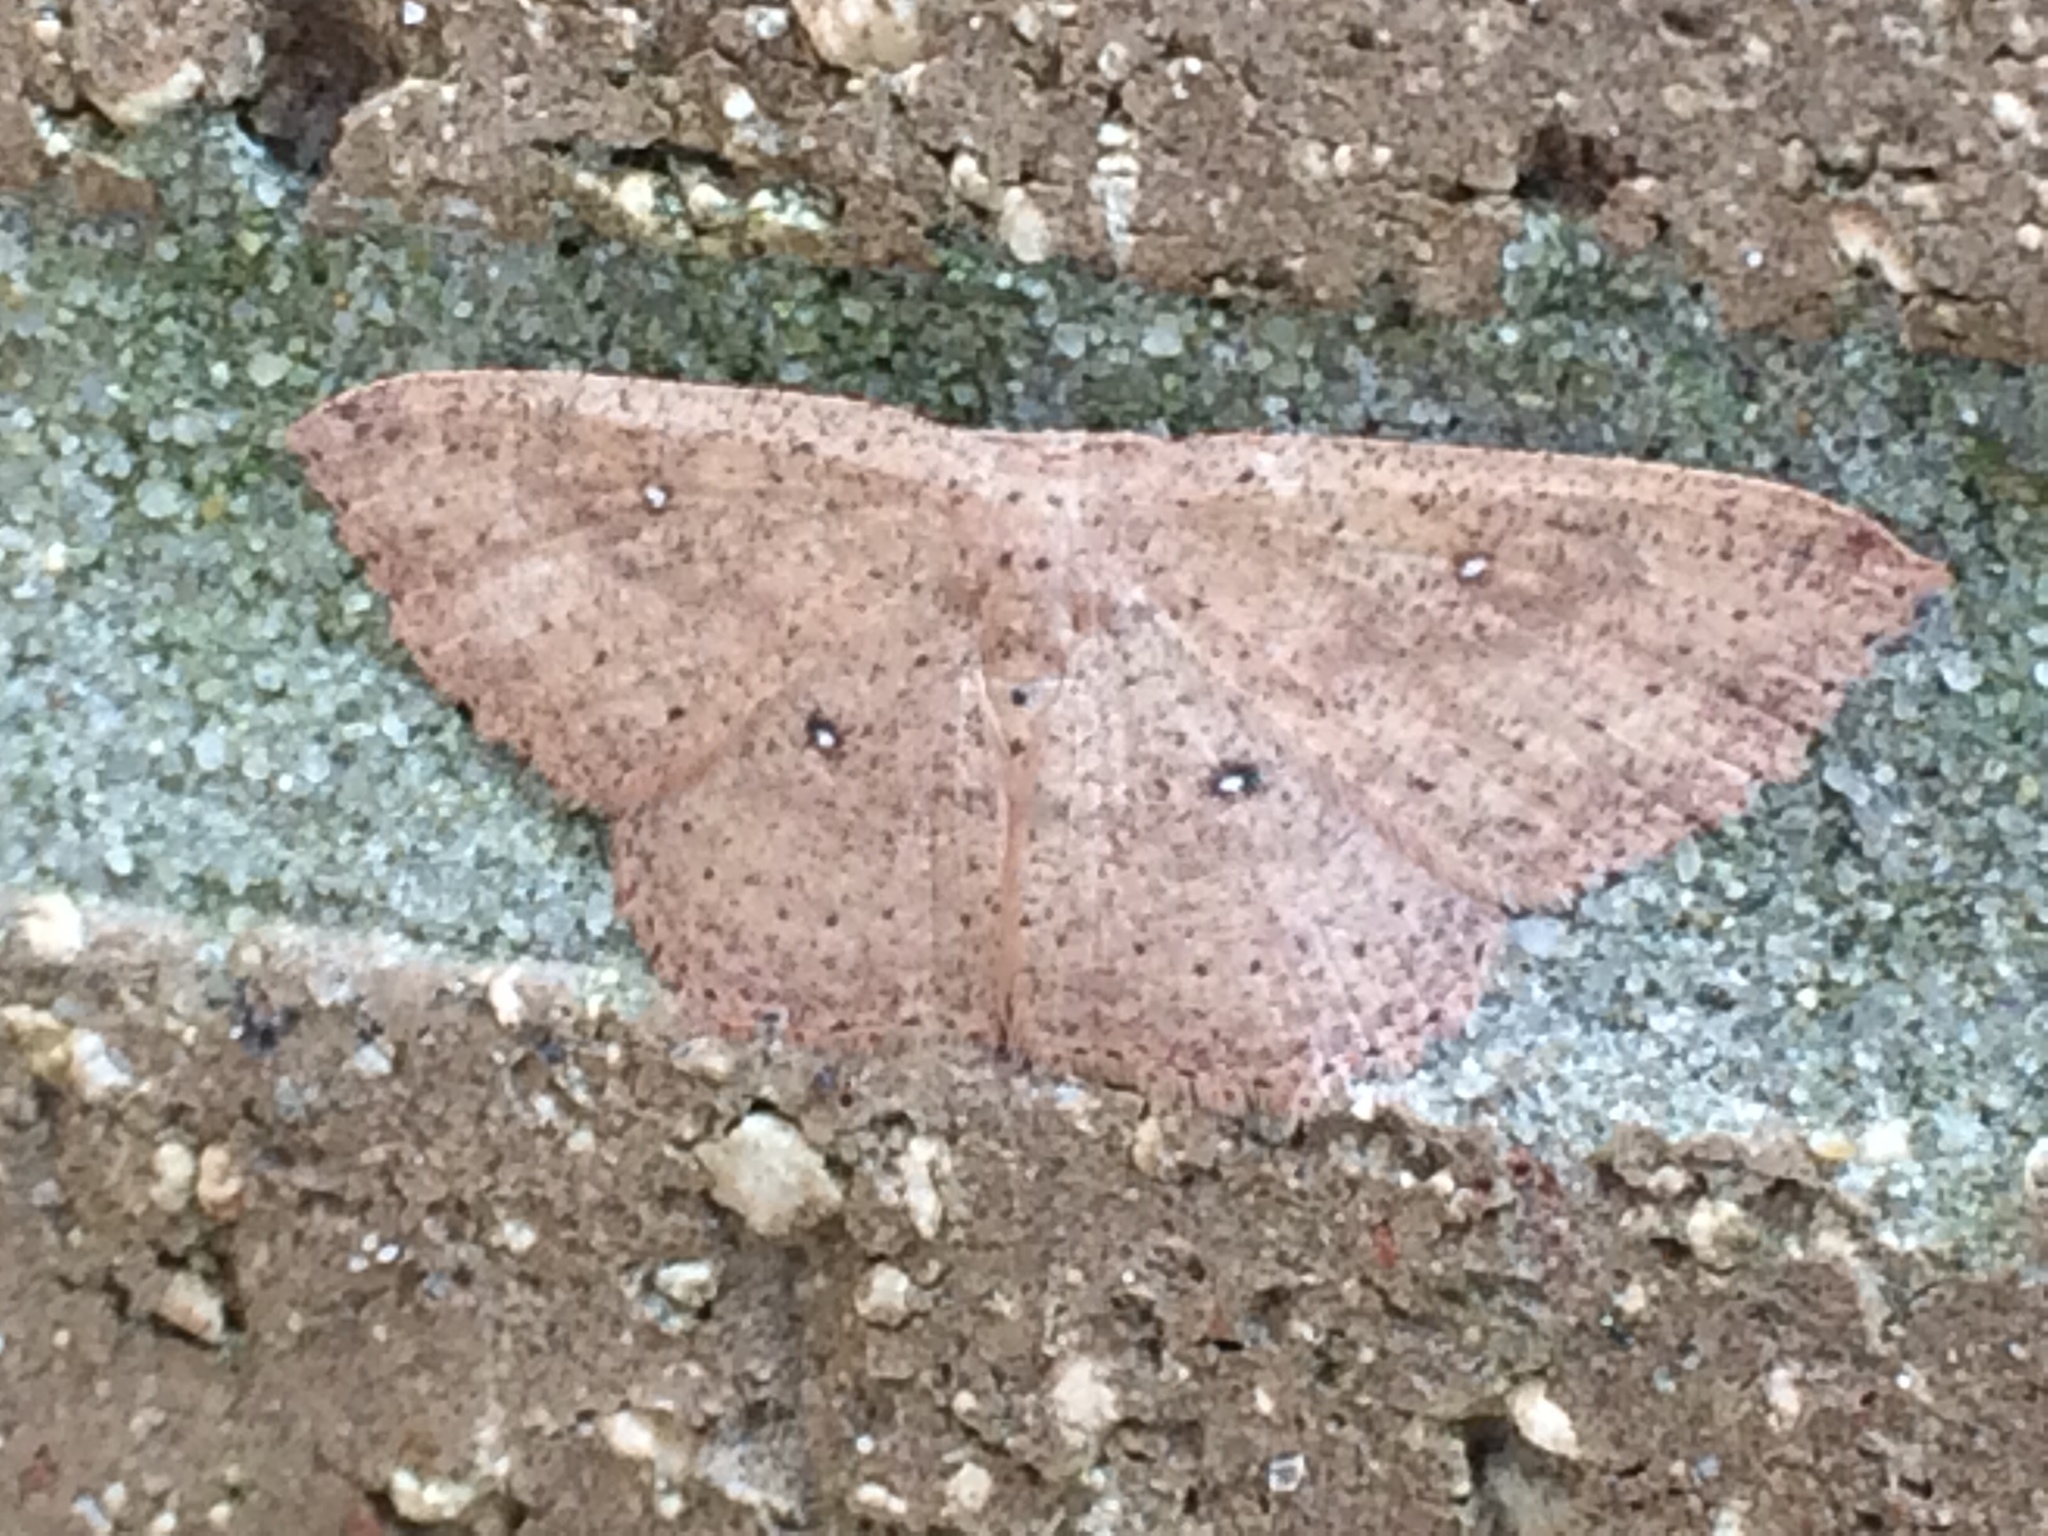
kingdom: Animalia
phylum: Arthropoda
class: Insecta
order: Lepidoptera
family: Geometridae
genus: Cyclophora
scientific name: Cyclophora myrtaria
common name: Waxmyrtle wave moth
